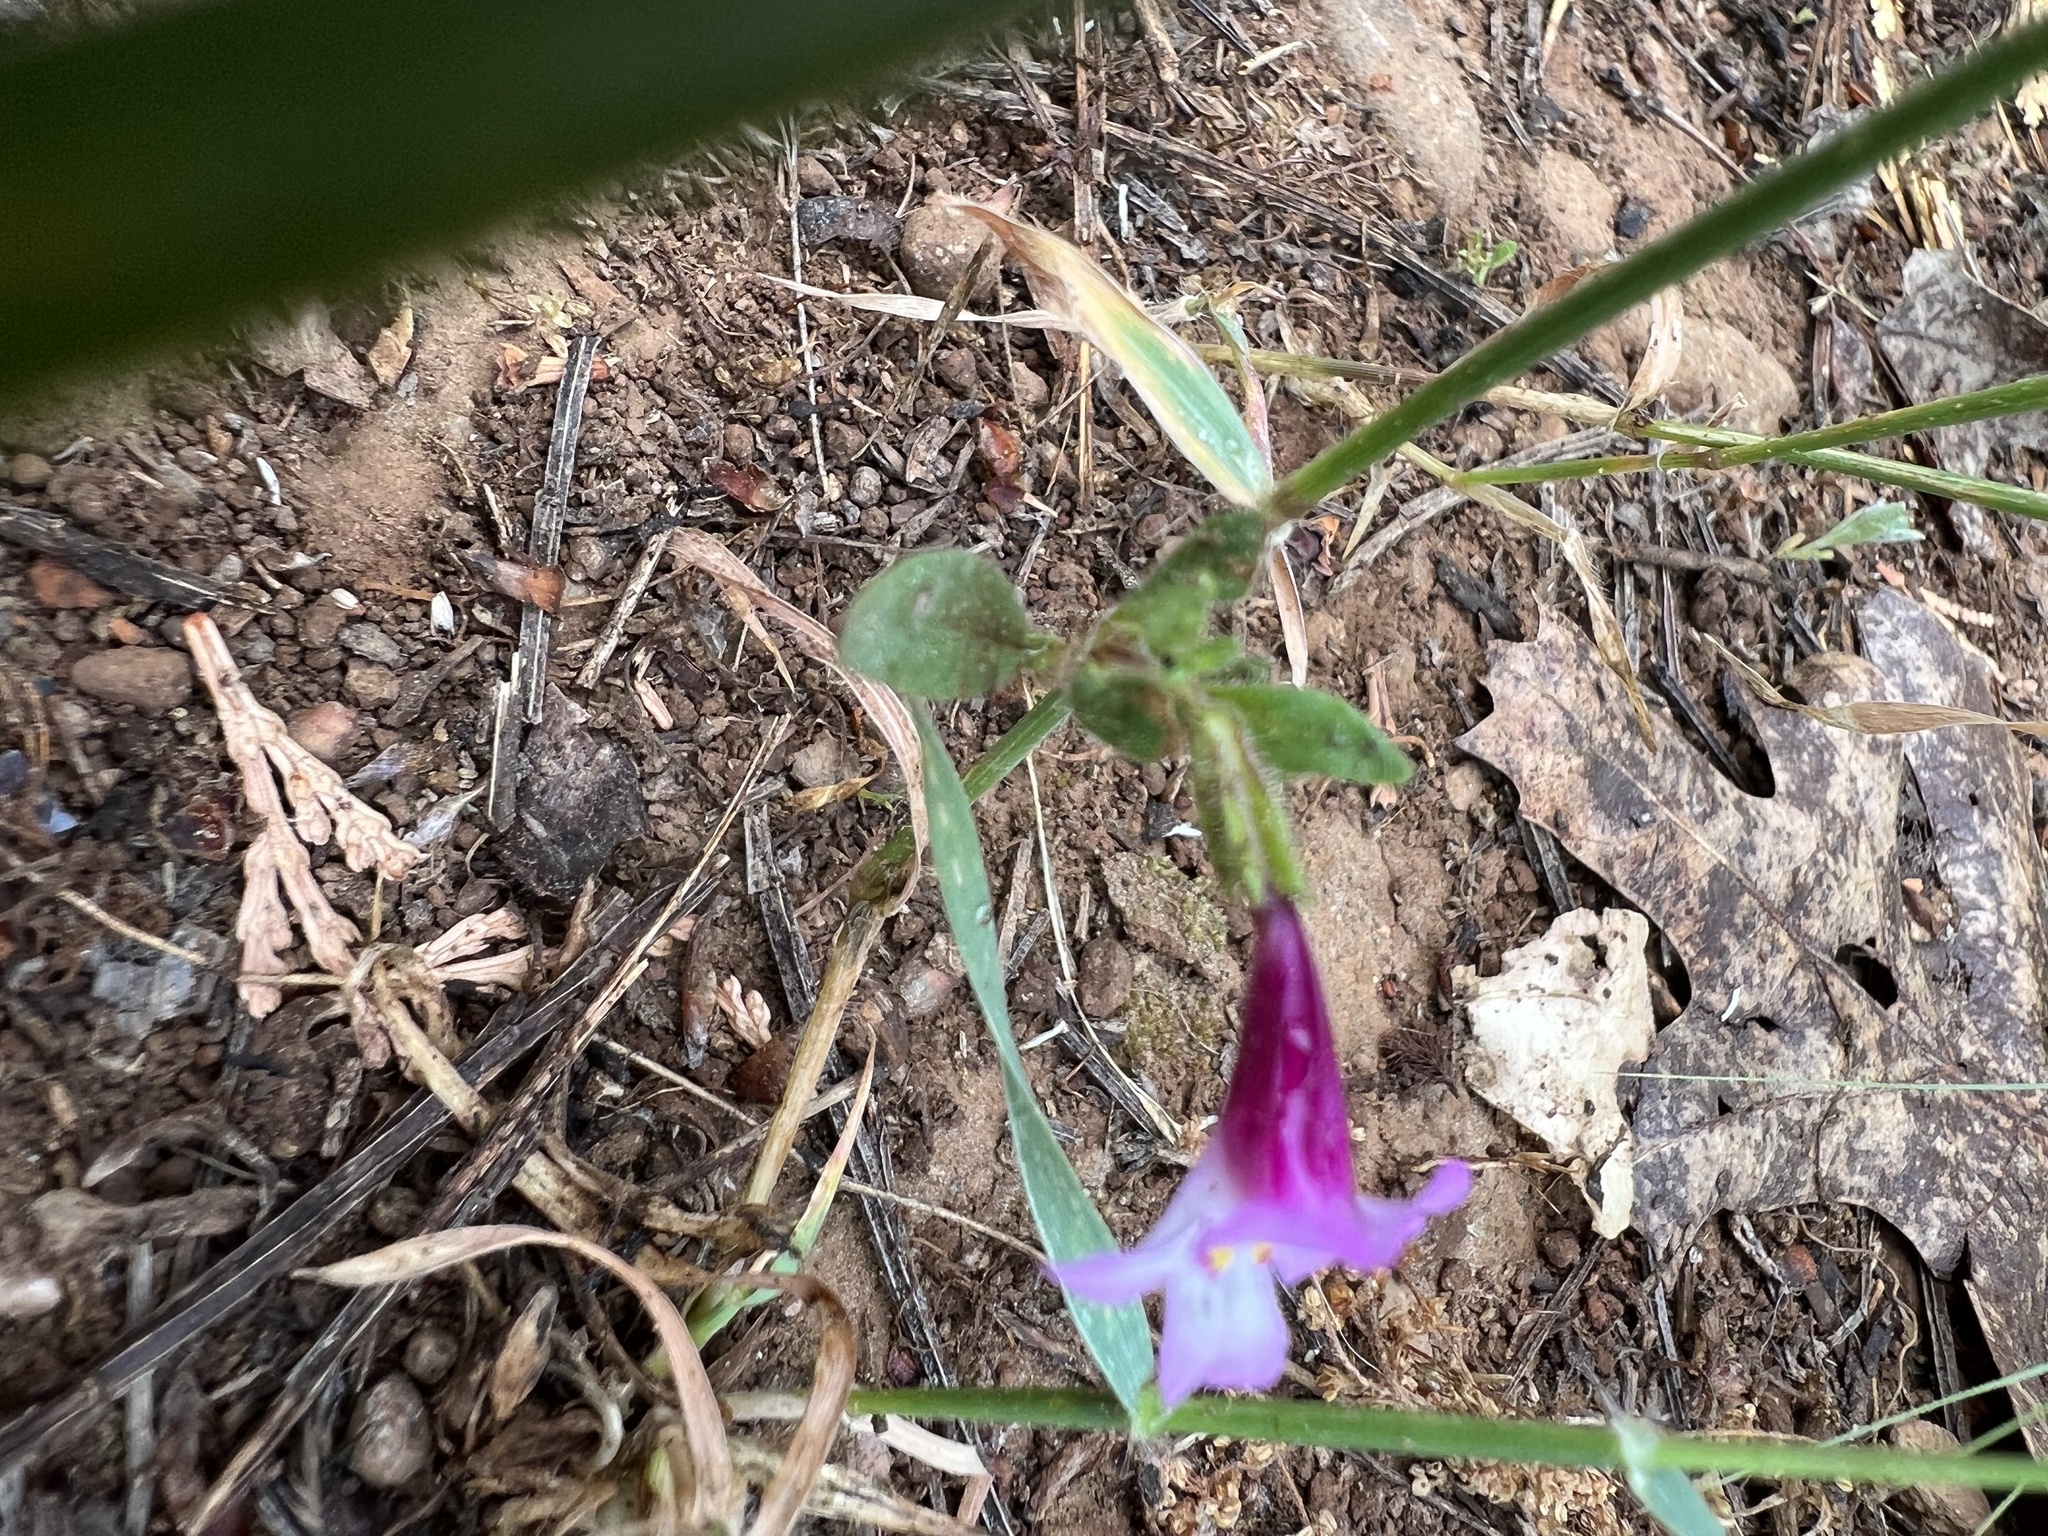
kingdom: Plantae
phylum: Tracheophyta
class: Magnoliopsida
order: Lamiales
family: Phrymaceae
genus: Diplacus
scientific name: Diplacus torreyi
